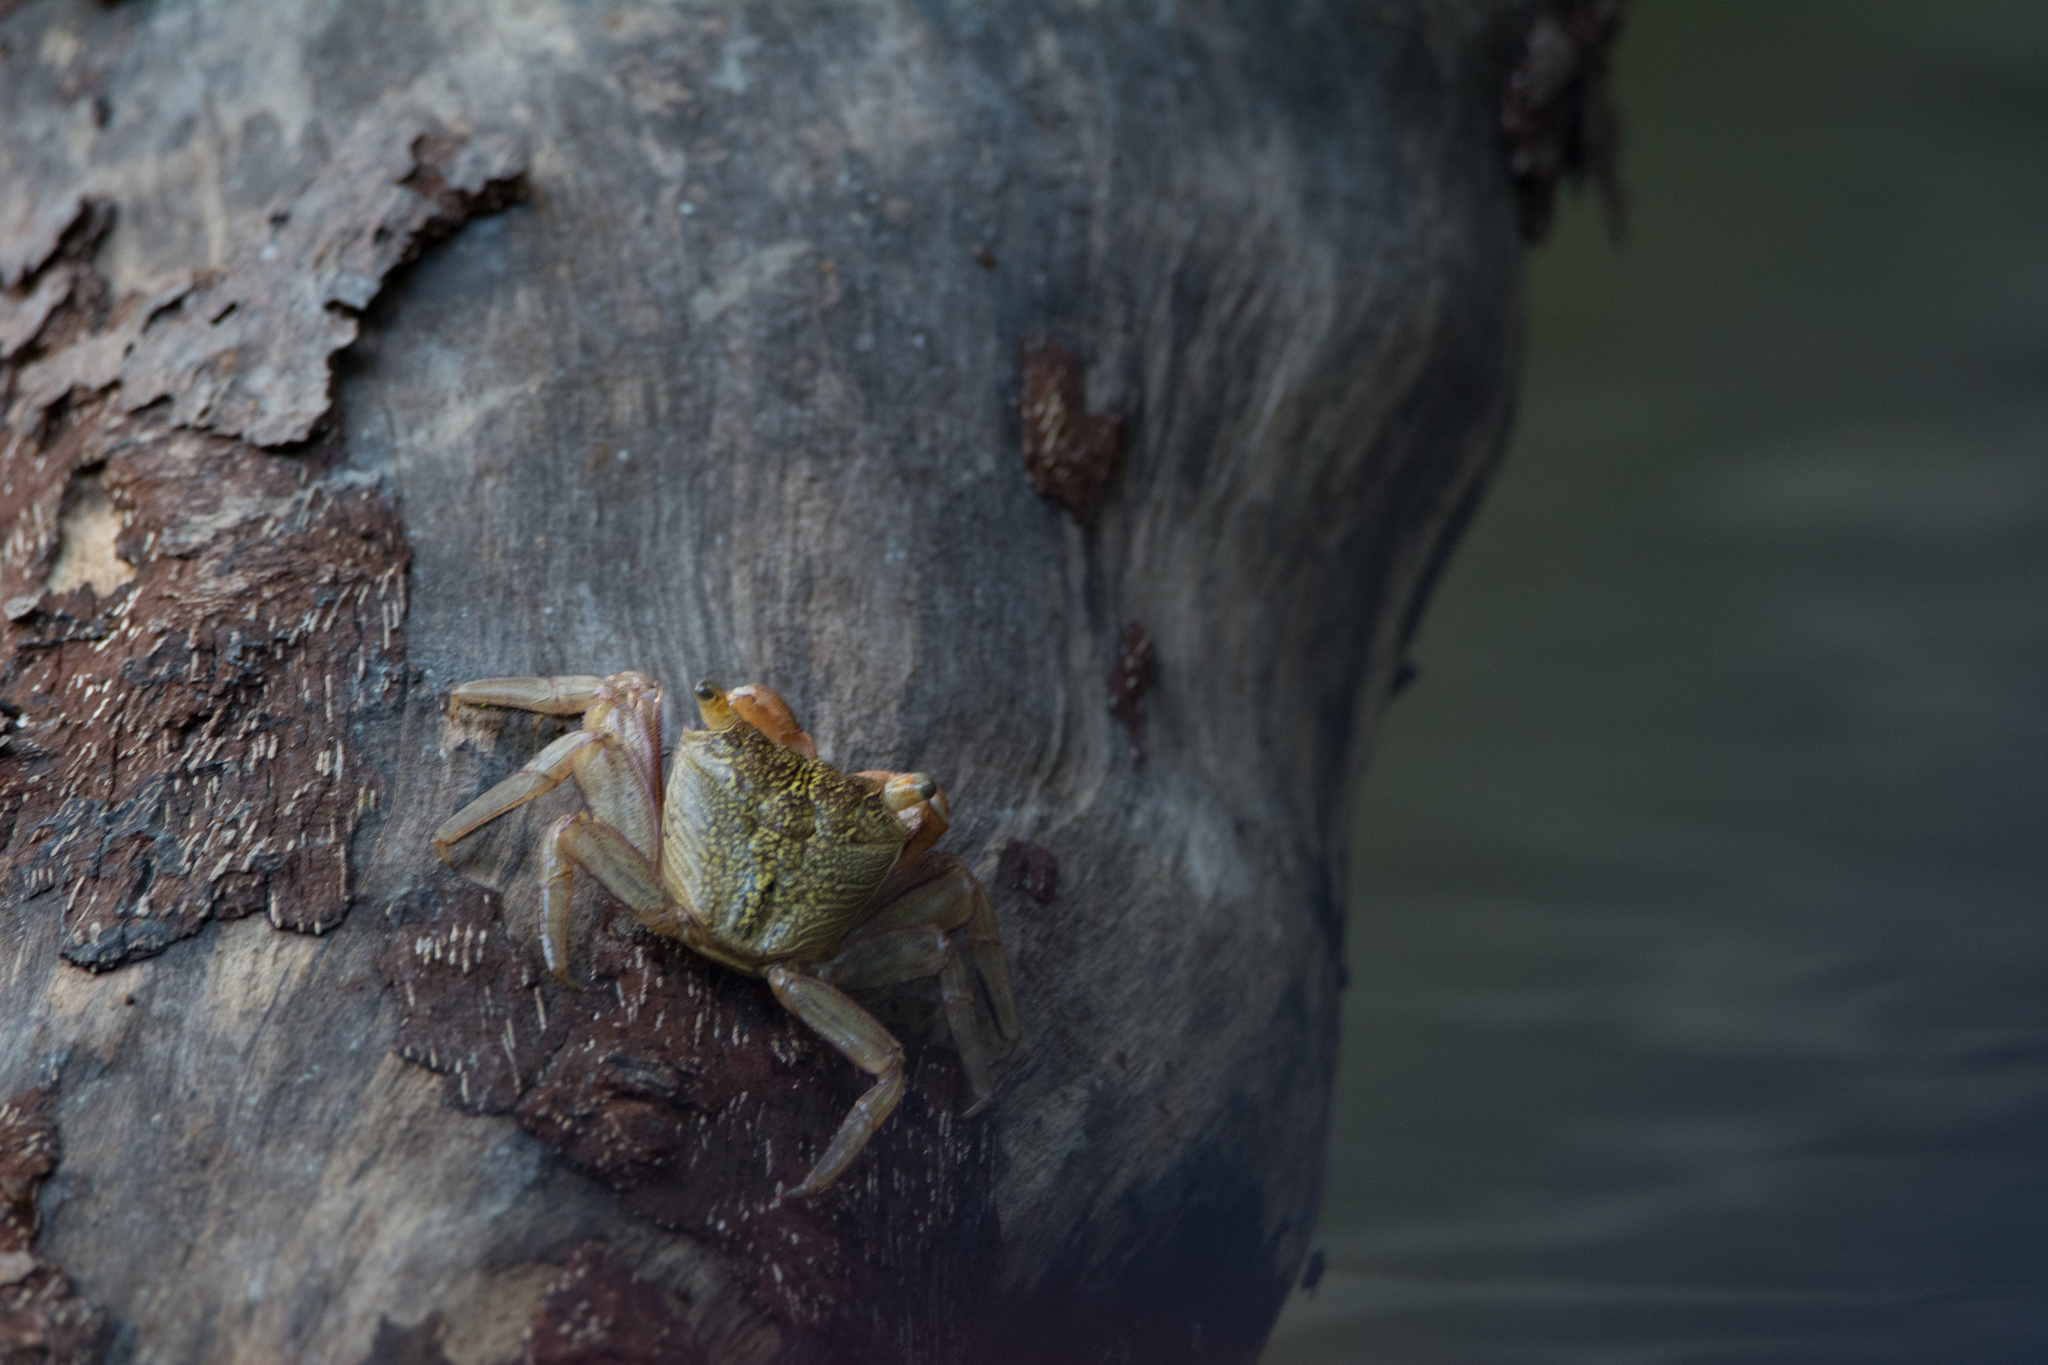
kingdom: Animalia
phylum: Arthropoda
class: Malacostraca
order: Decapoda
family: Sesarmidae
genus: Aratus
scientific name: Aratus pisonii
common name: Mangrove crab
